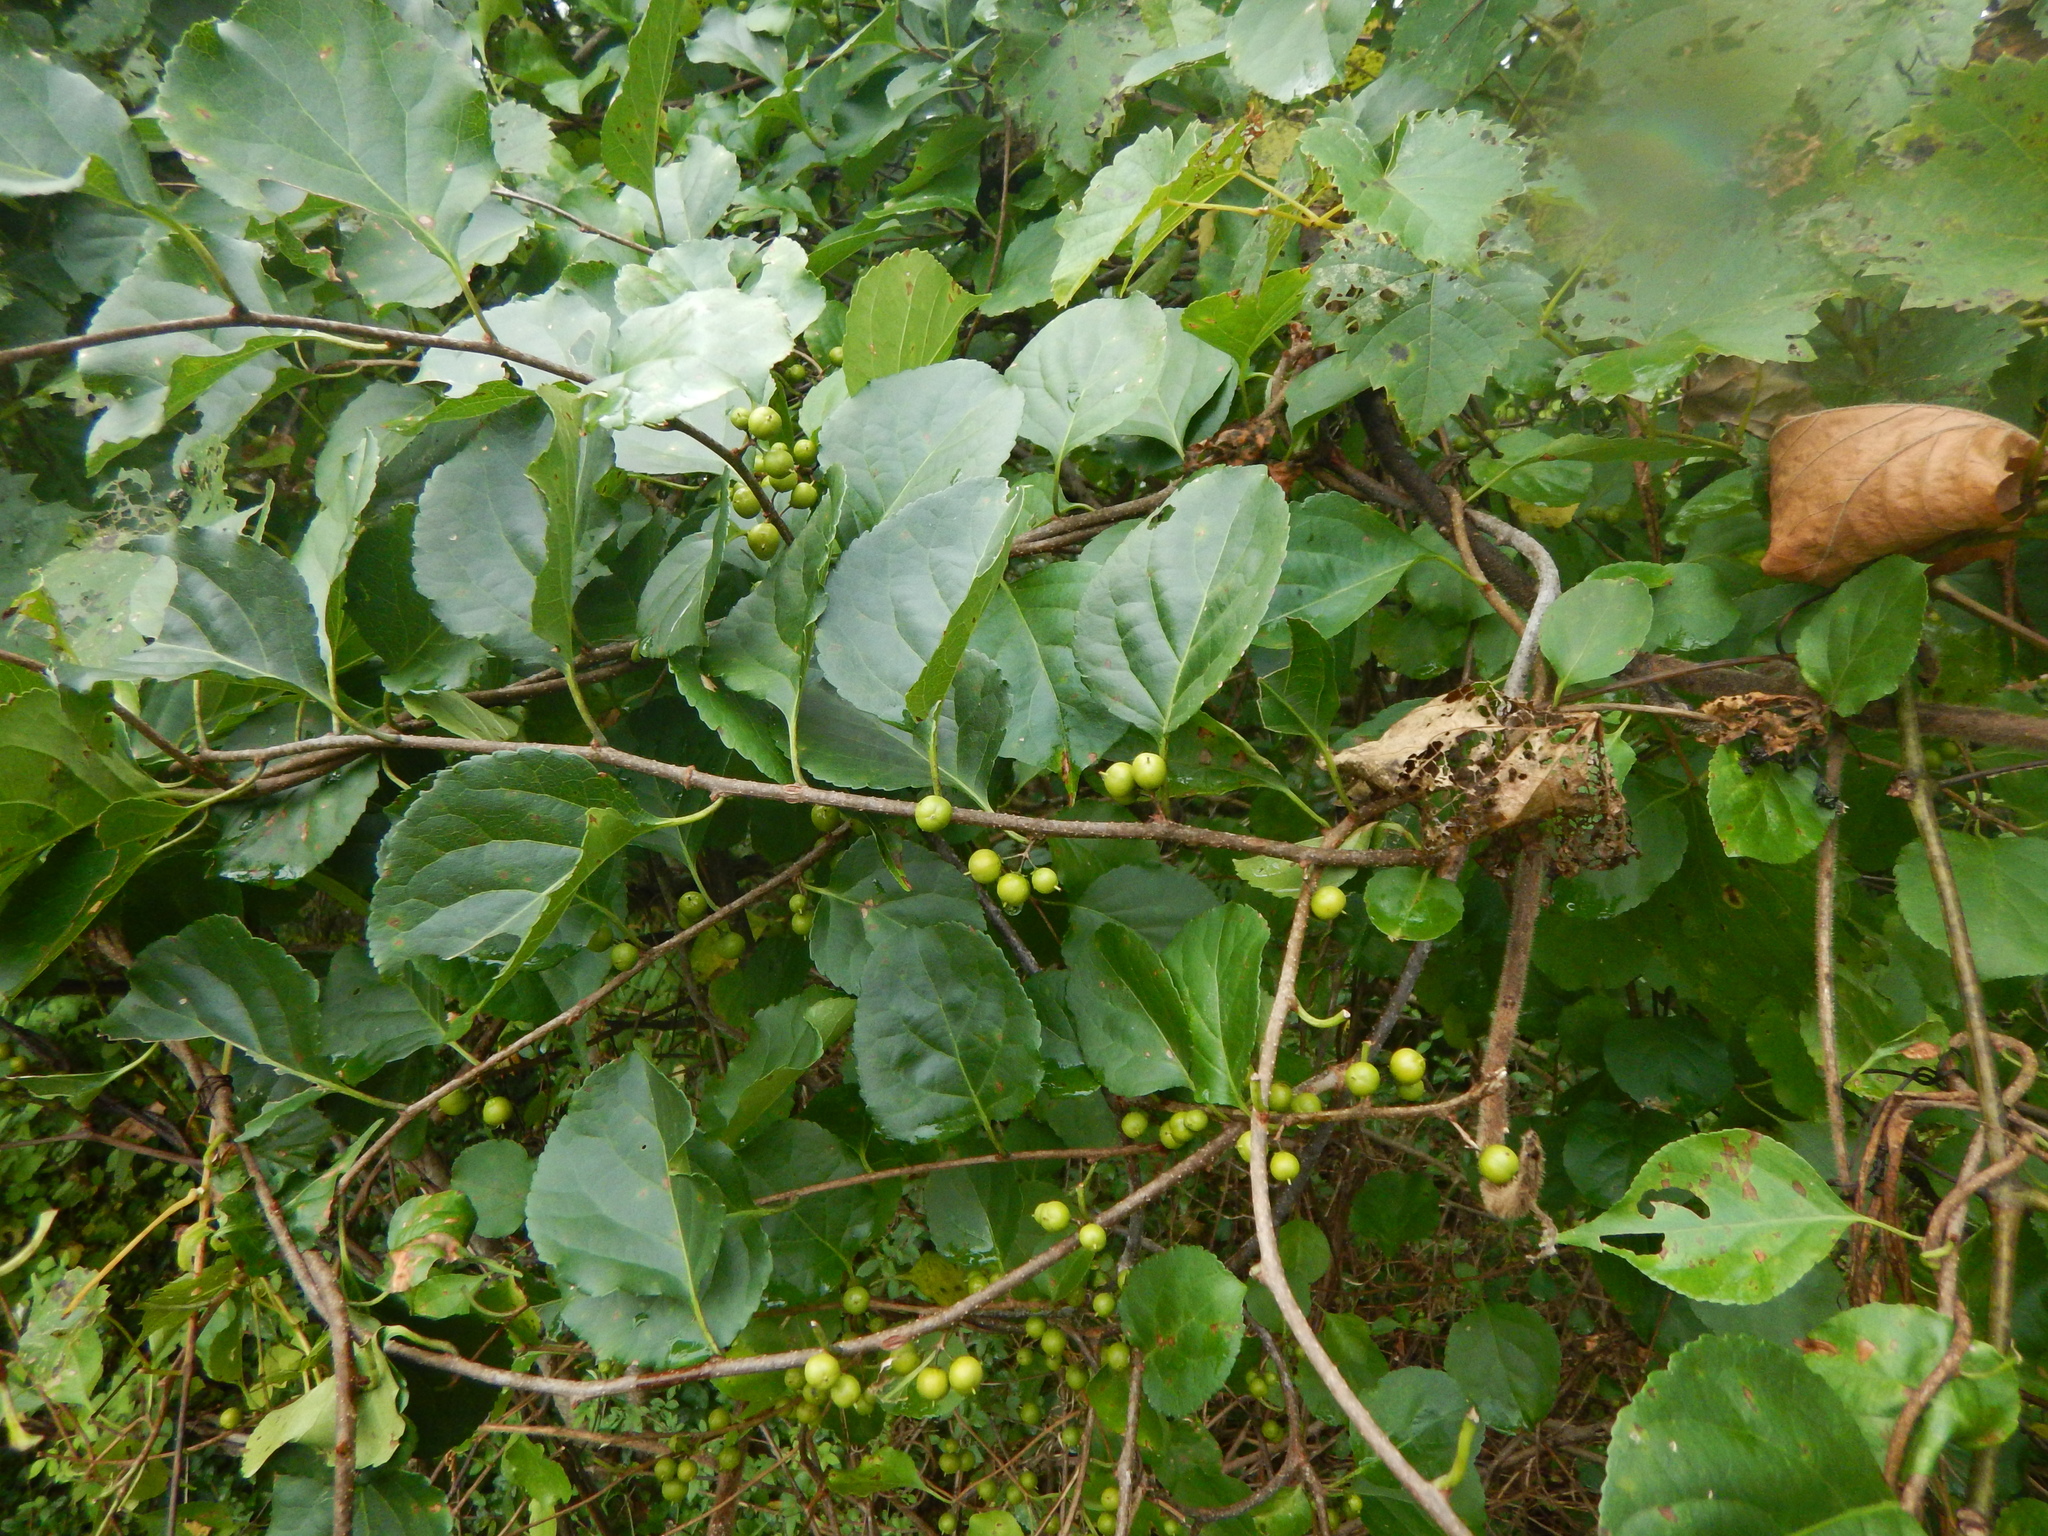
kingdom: Plantae
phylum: Tracheophyta
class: Magnoliopsida
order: Celastrales
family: Celastraceae
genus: Celastrus
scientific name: Celastrus orbiculatus
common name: Oriental bittersweet
